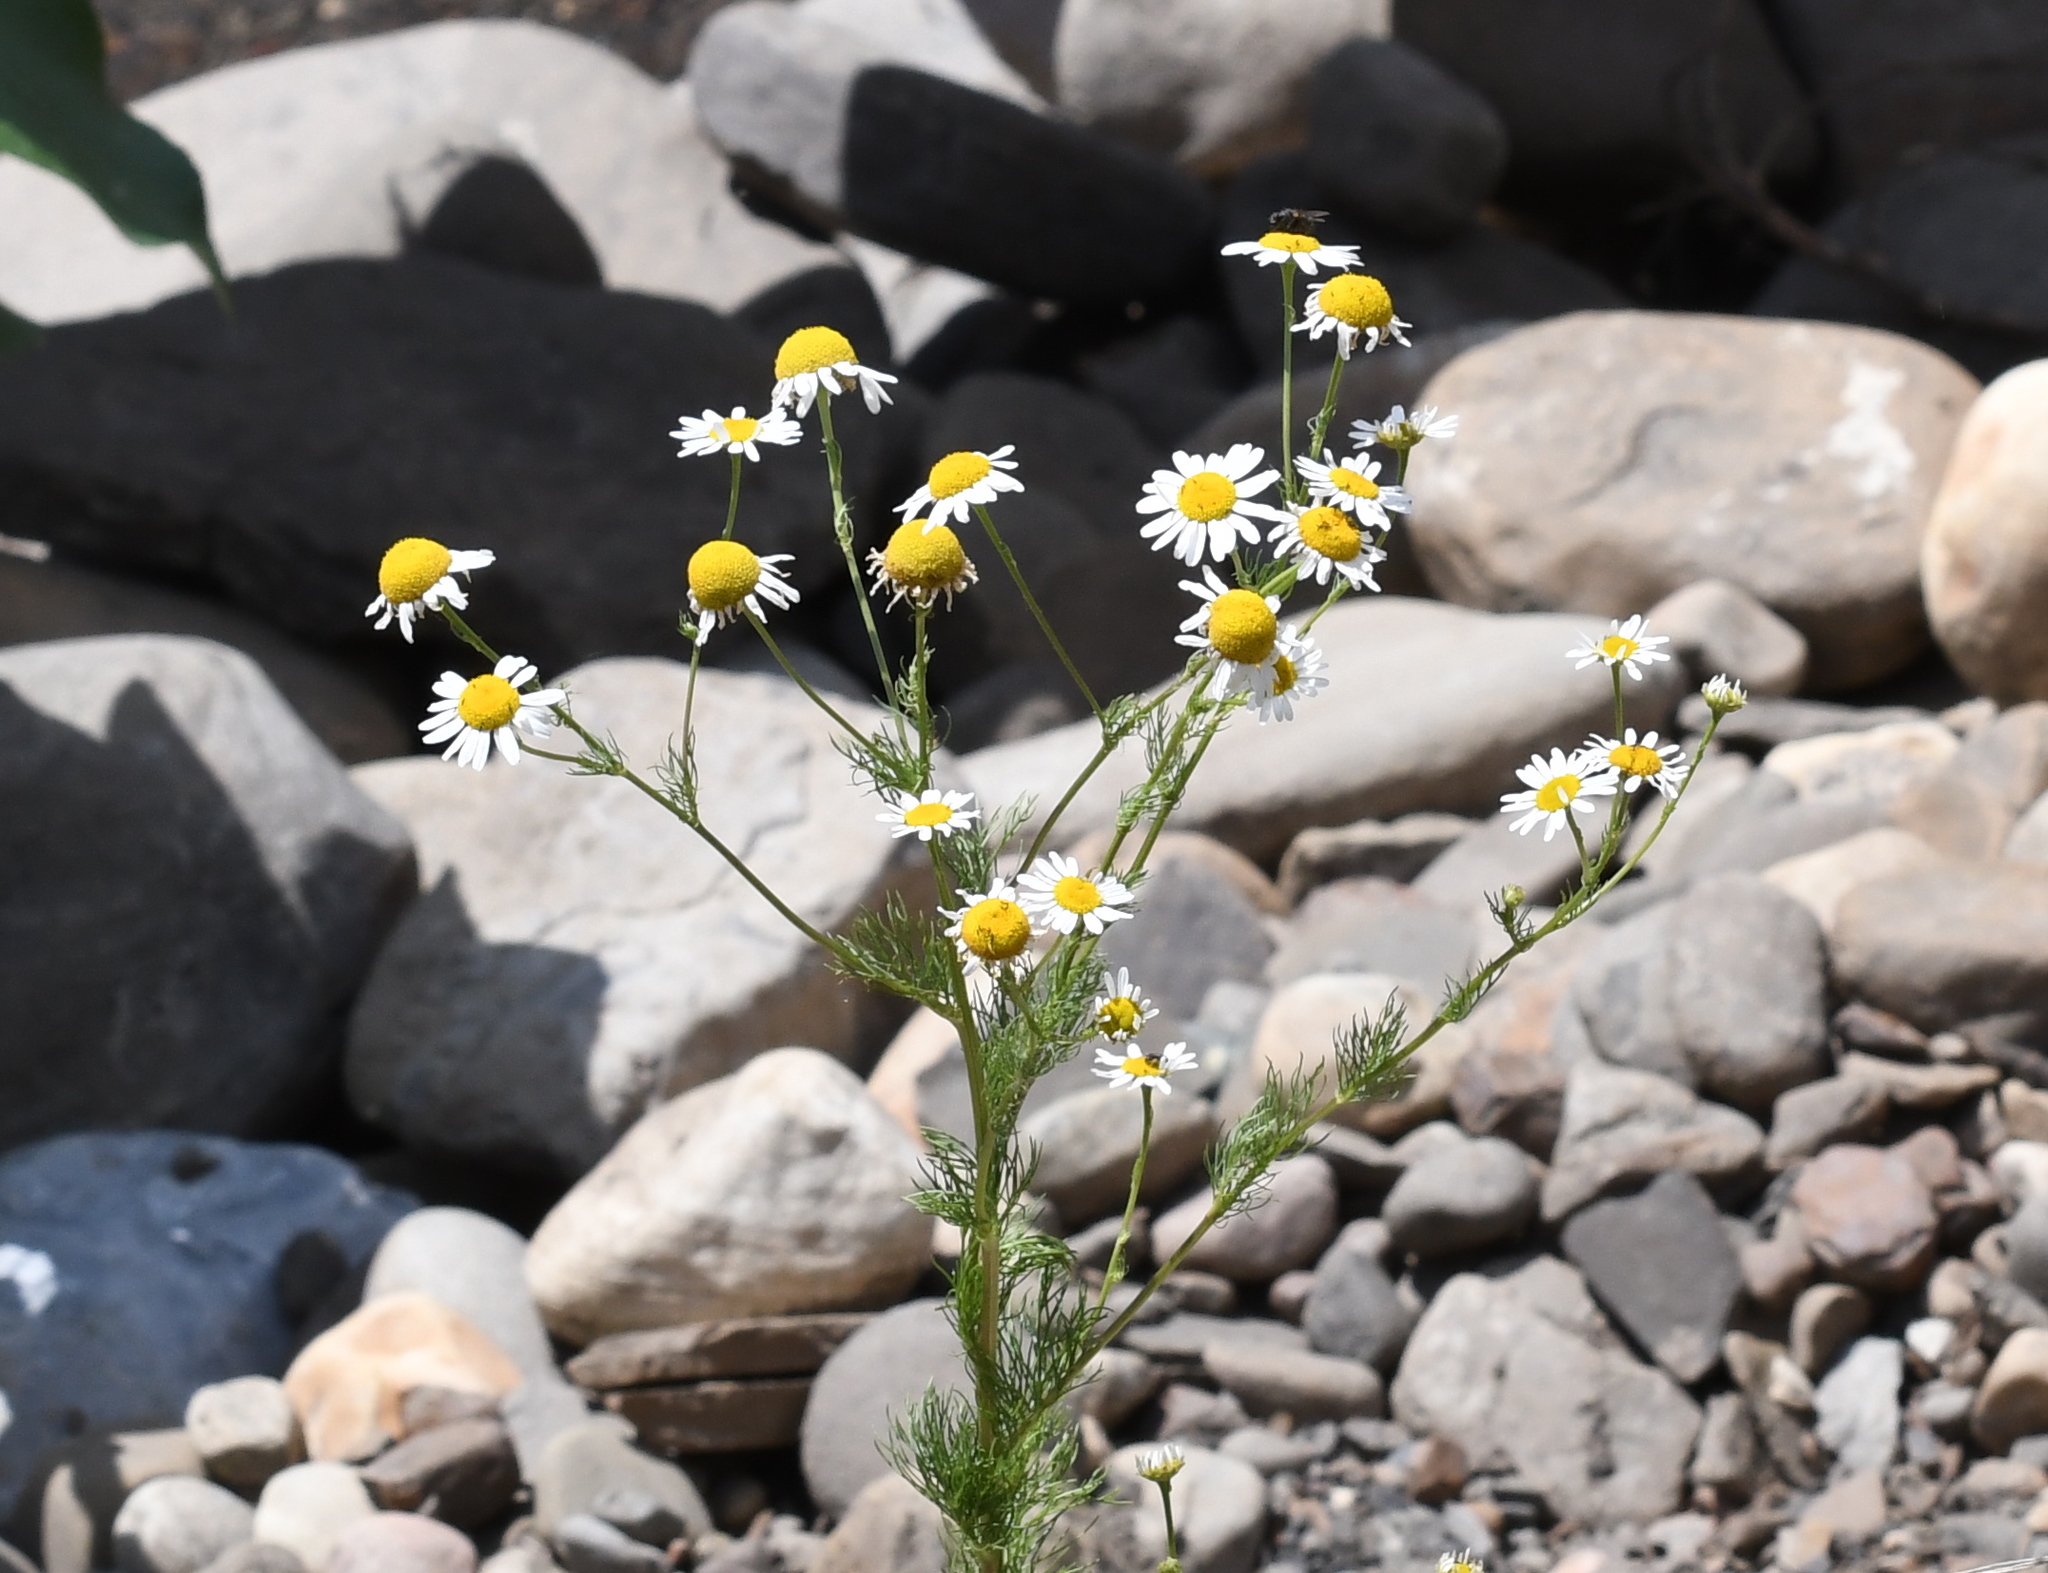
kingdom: Plantae
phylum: Tracheophyta
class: Magnoliopsida
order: Asterales
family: Asteraceae
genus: Tripleurospermum
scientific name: Tripleurospermum inodorum
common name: Scentless mayweed
